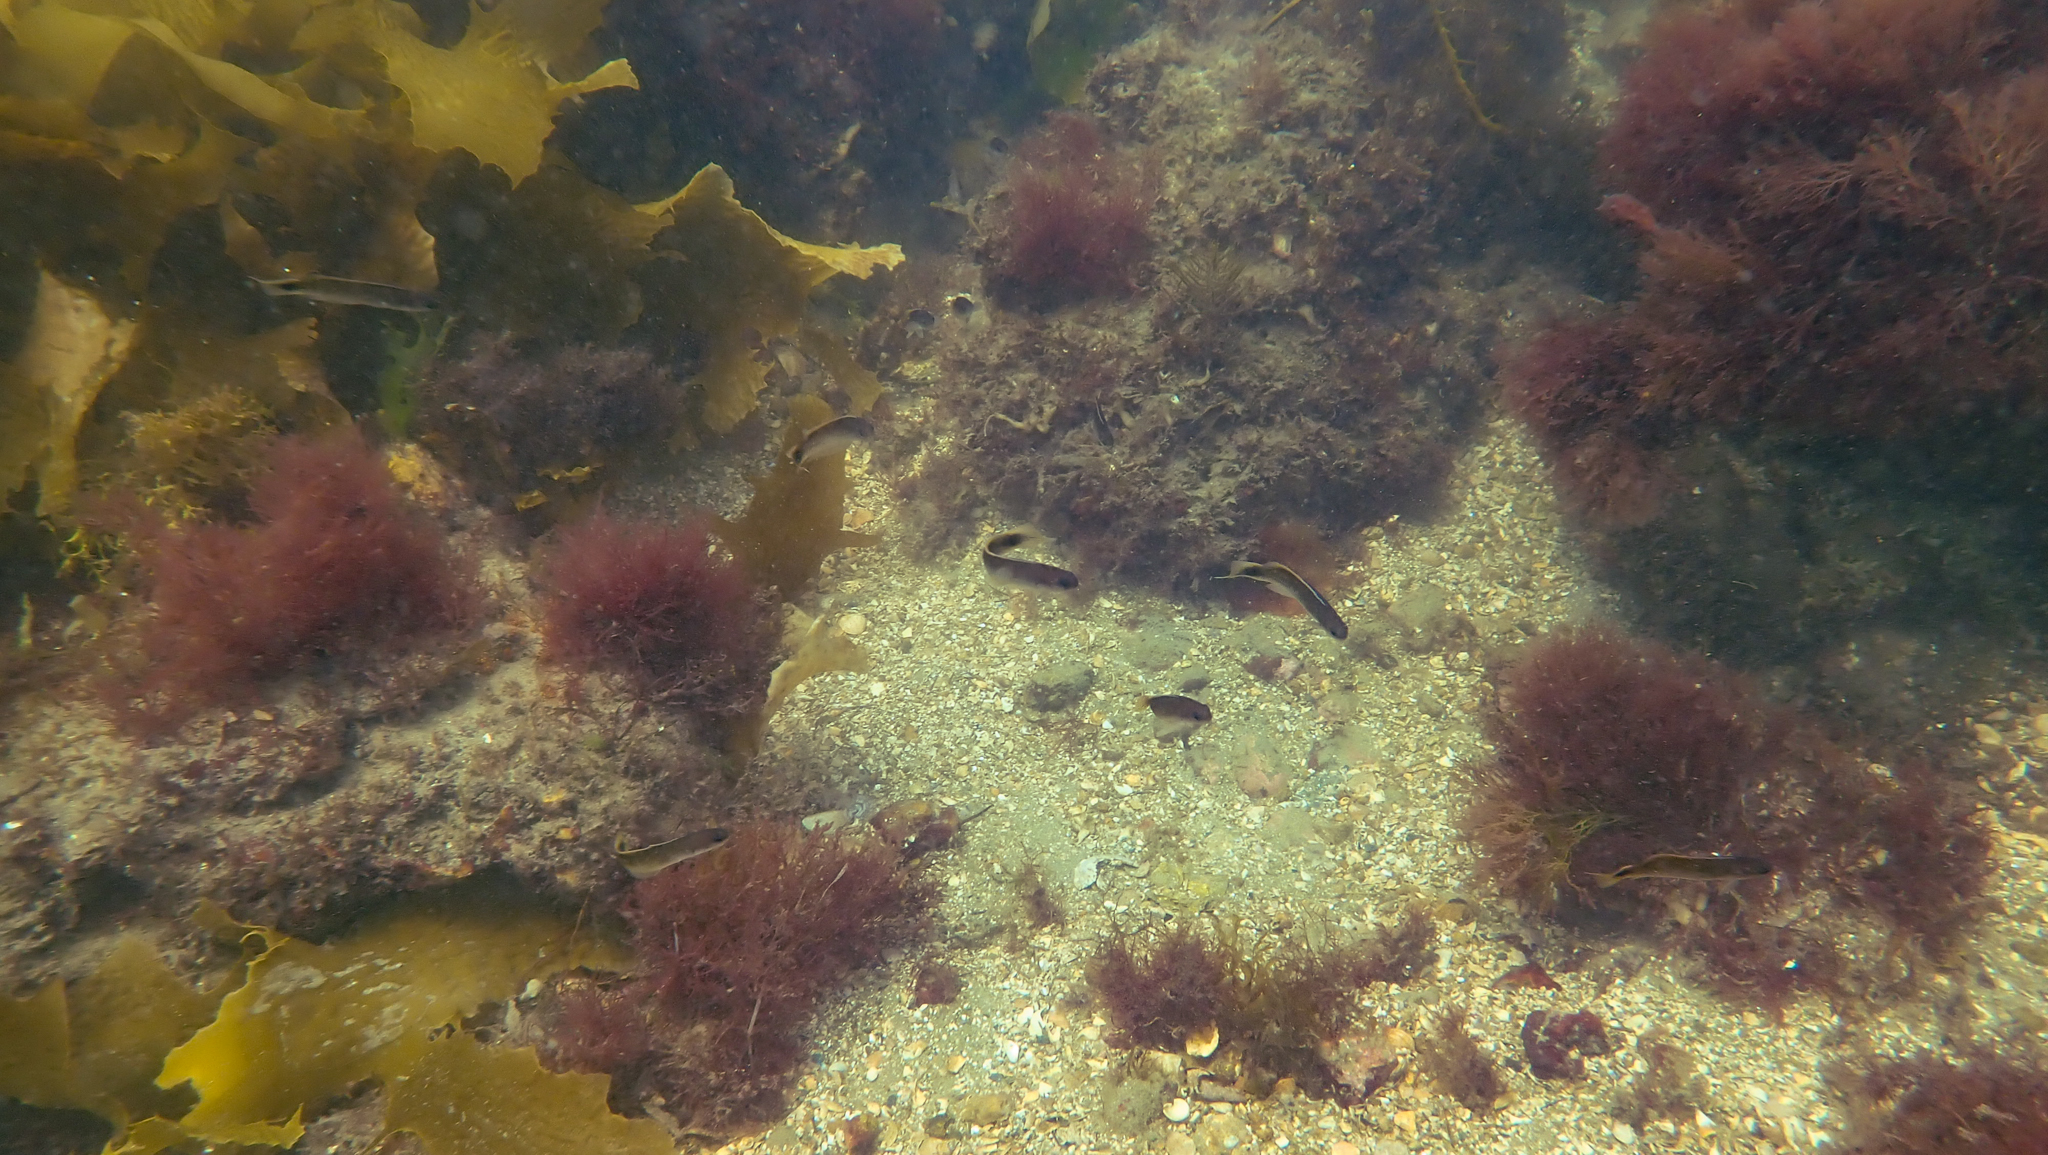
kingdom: Animalia
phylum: Chordata
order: Perciformes
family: Plesiopidae
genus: Trachinops
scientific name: Trachinops caudimaculatus
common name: Blotched-tailed trachinops
